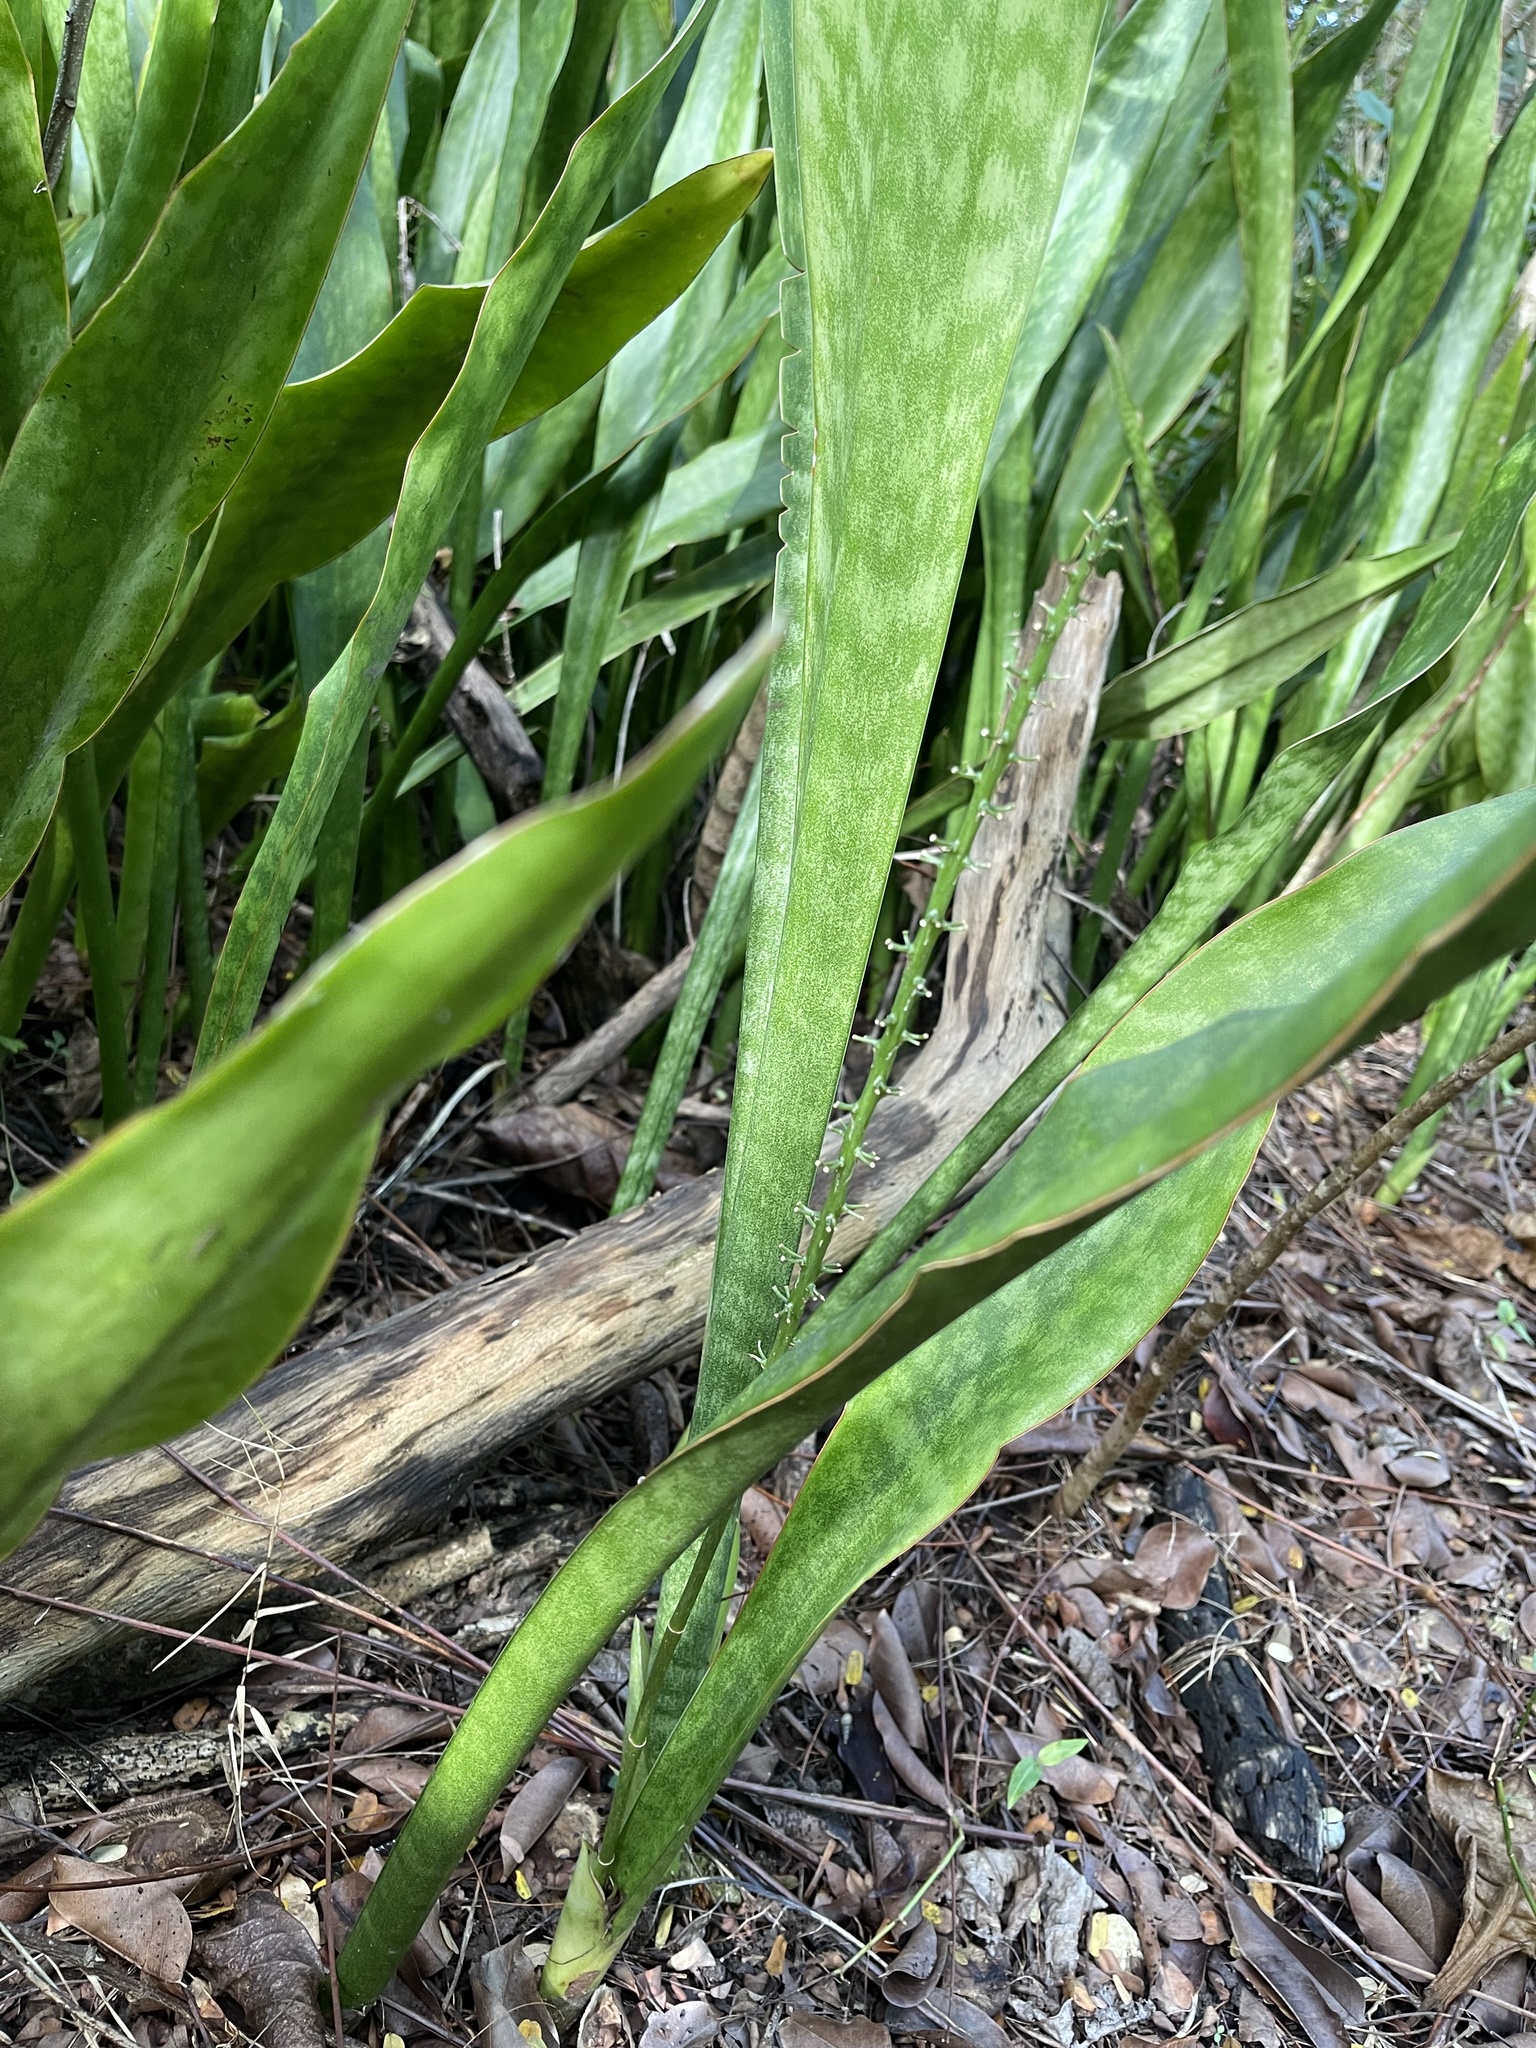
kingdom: Plantae
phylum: Tracheophyta
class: Liliopsida
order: Asparagales
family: Asparagaceae
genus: Dracaena
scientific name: Dracaena hyacinthoides
